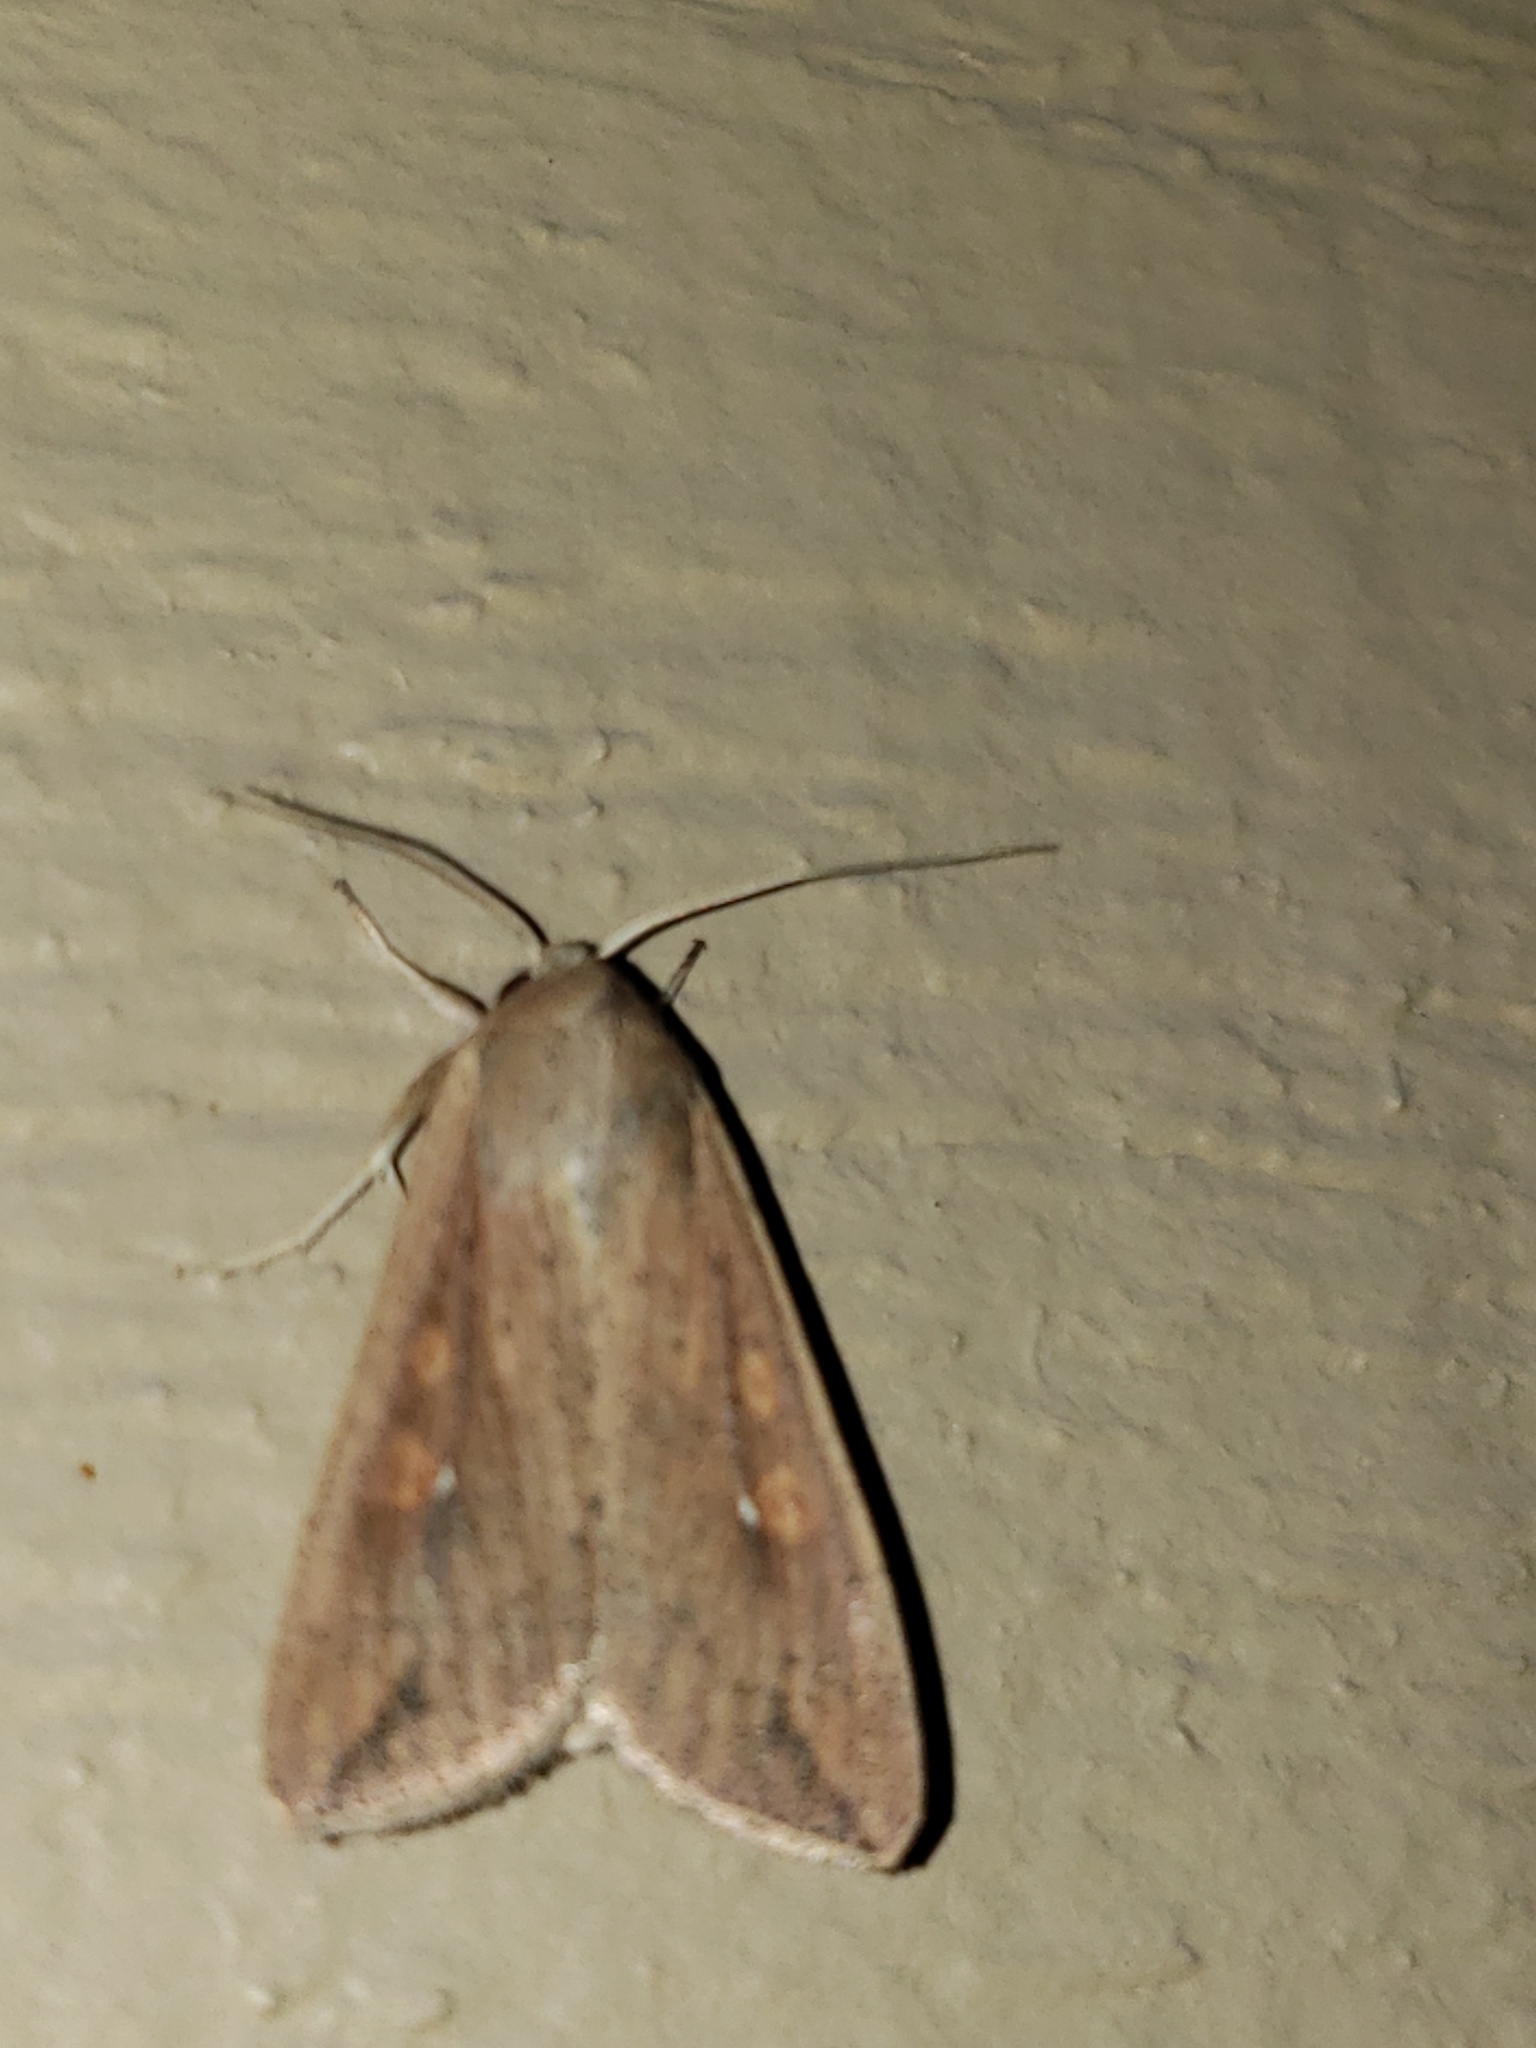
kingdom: Animalia
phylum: Arthropoda
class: Insecta
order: Lepidoptera
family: Noctuidae
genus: Mythimna
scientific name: Mythimna unipuncta
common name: White-speck
